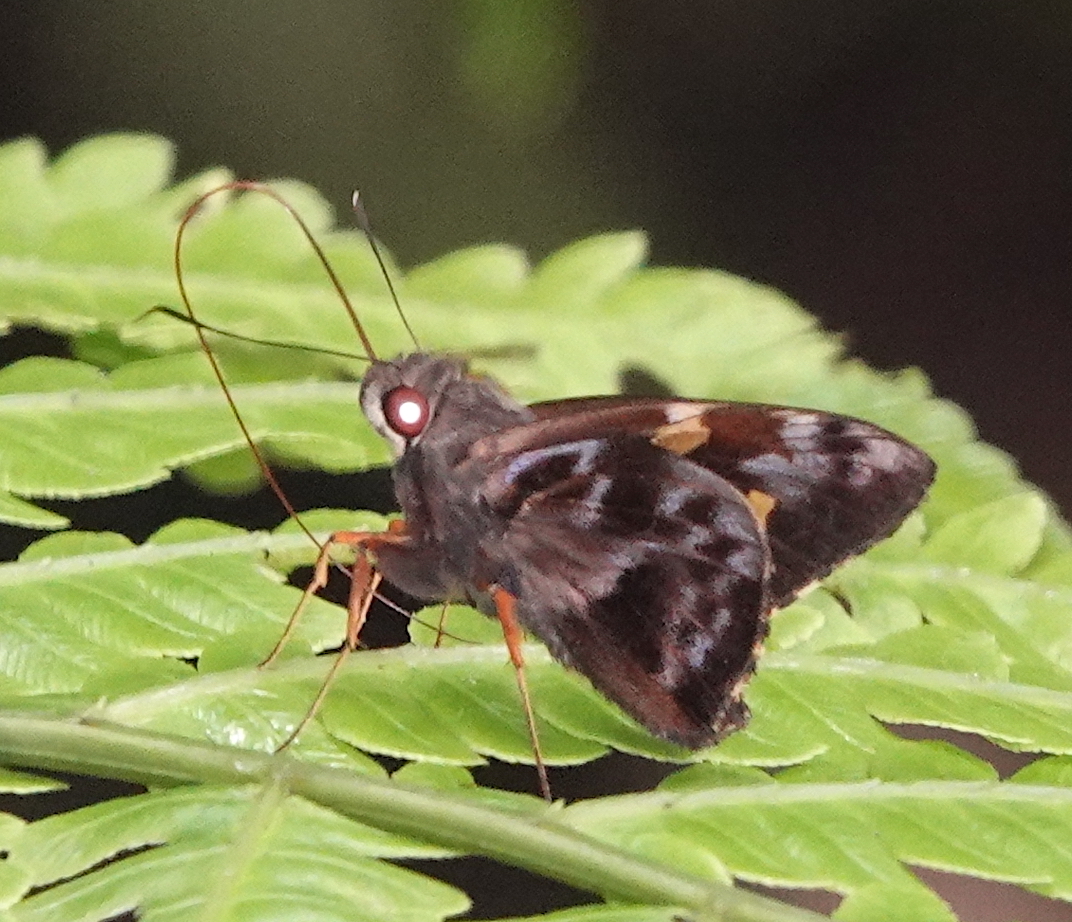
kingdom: Animalia
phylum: Arthropoda
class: Insecta
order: Lepidoptera
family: Hesperiidae
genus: Perichares
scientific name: Perichares philetes
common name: Green-backed ruby-eye
